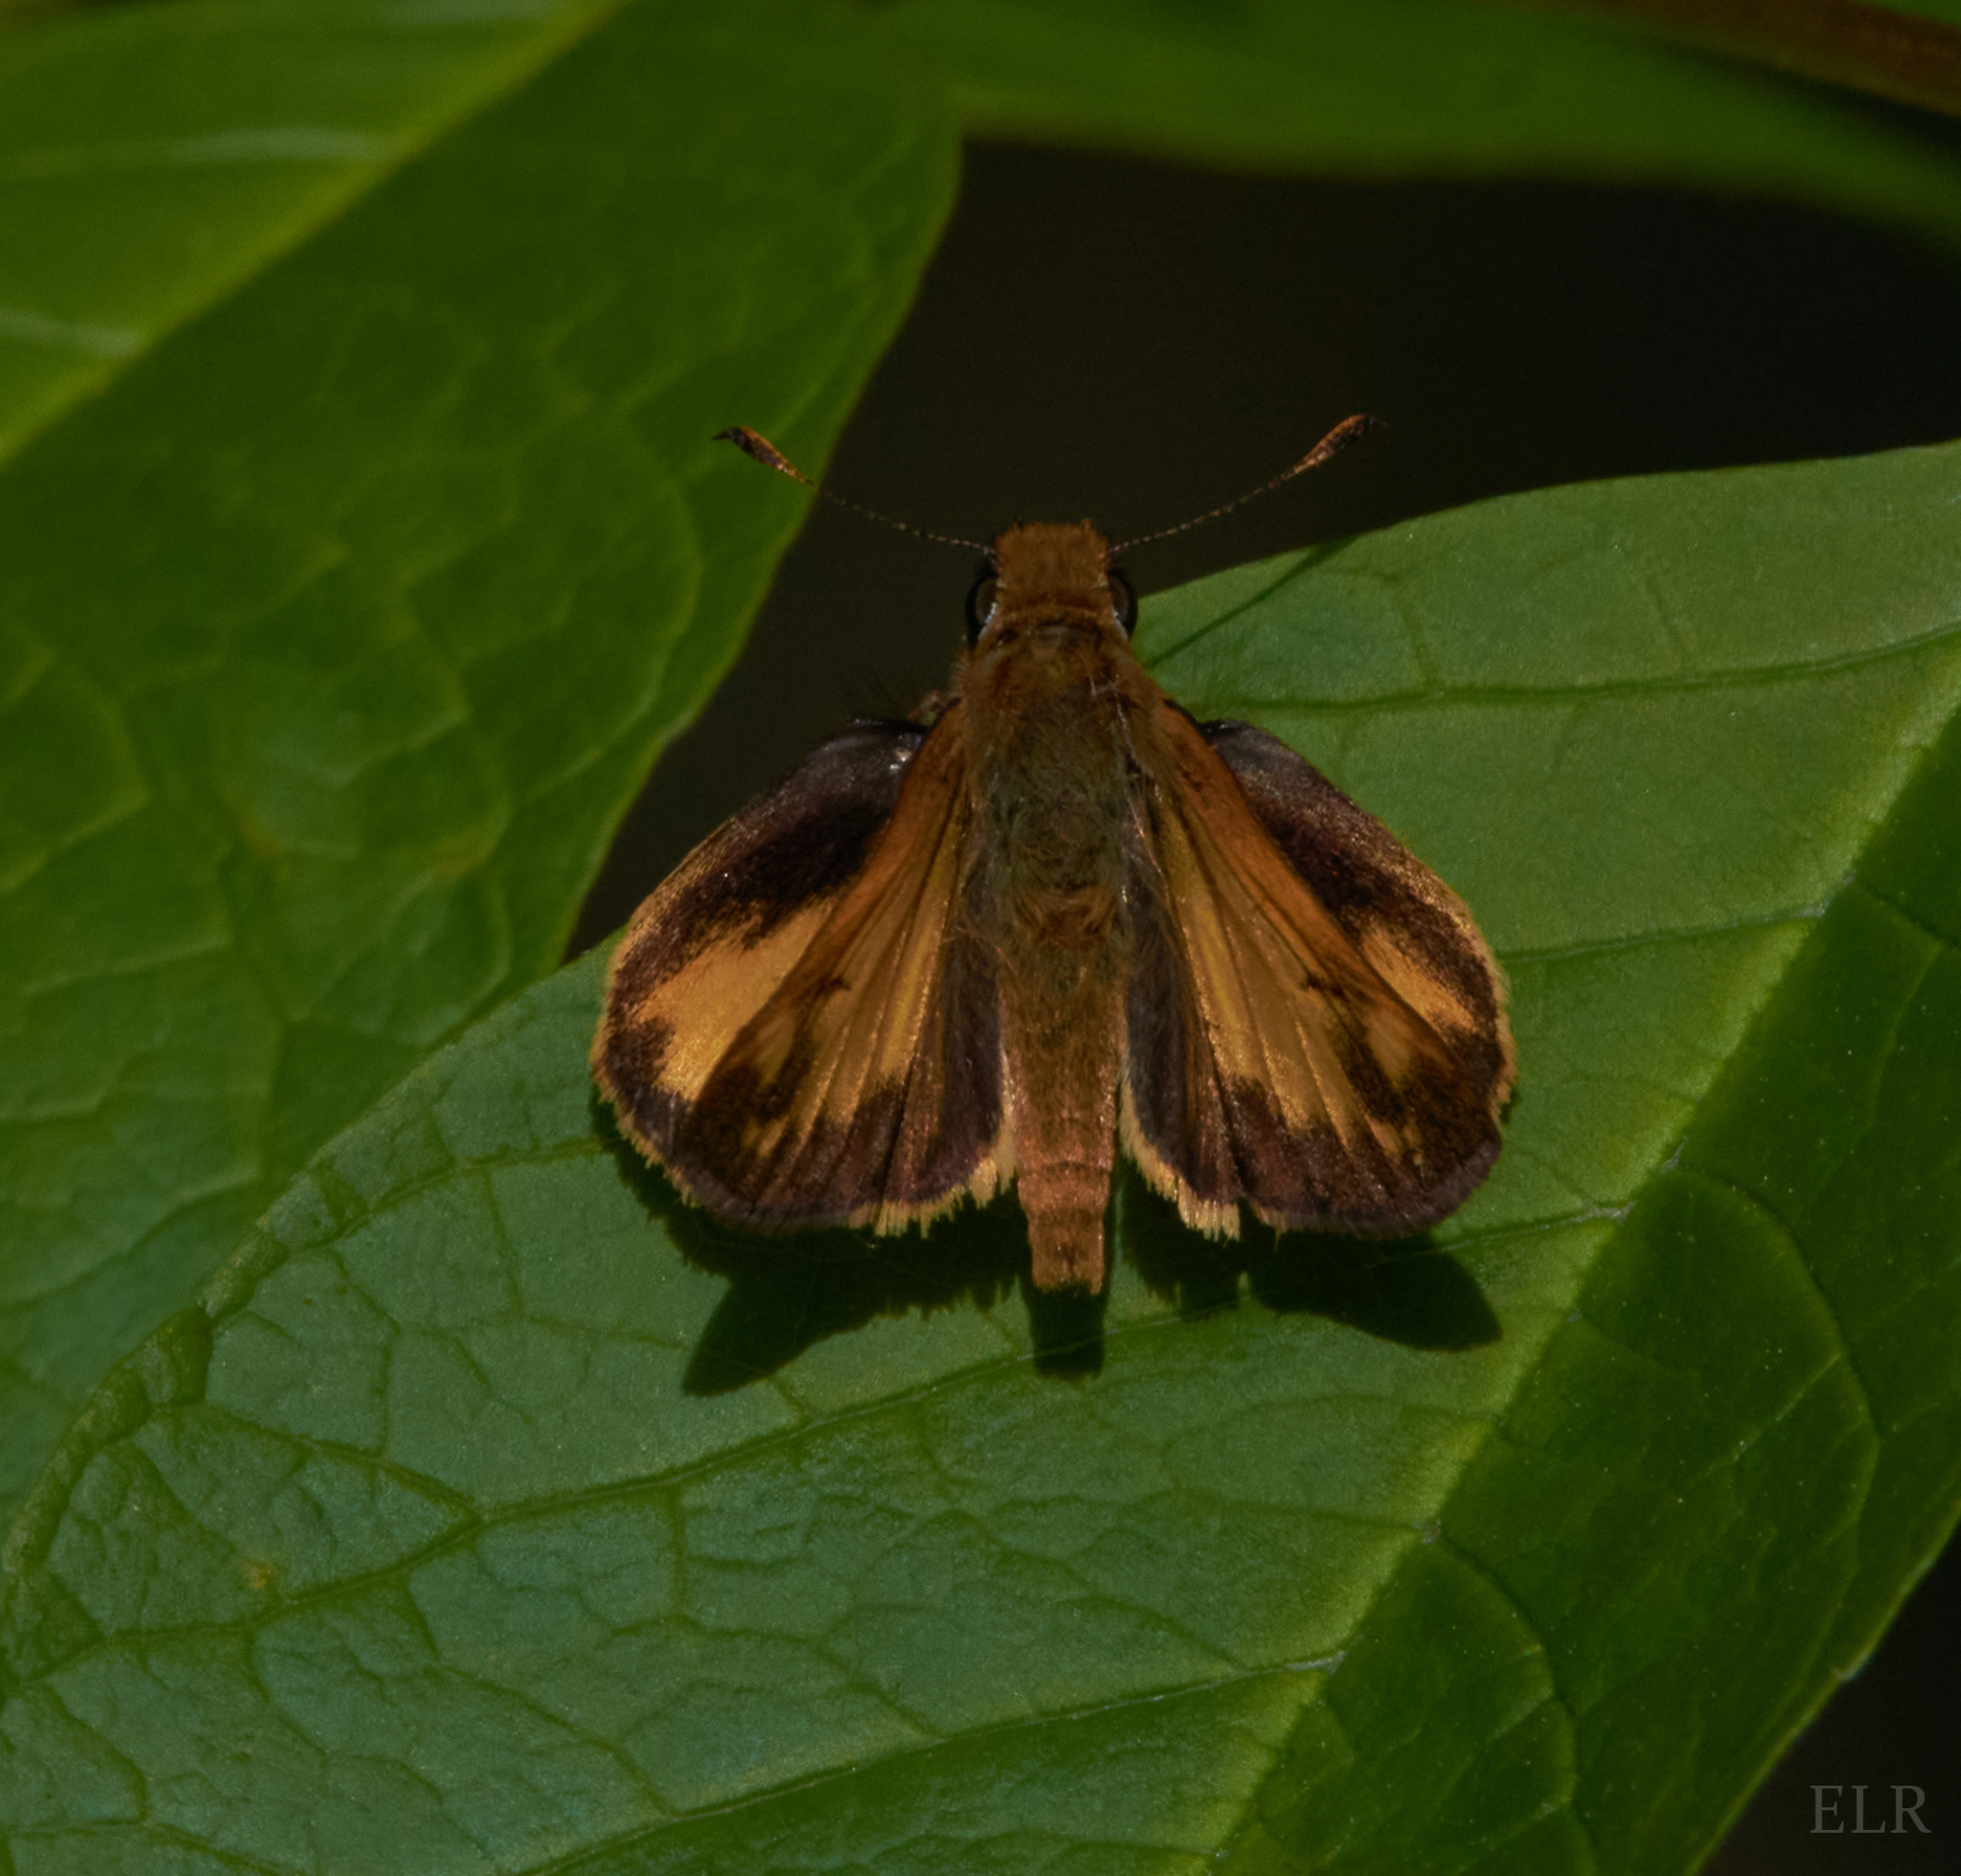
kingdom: Animalia
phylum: Arthropoda
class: Insecta
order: Lepidoptera
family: Hesperiidae
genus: Lon
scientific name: Lon zabulon
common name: Zabulon skipper
